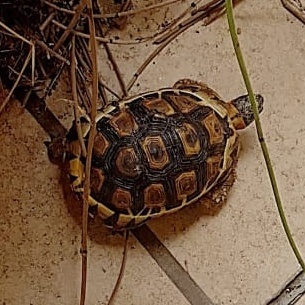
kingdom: Animalia
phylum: Chordata
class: Testudines
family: Testudinidae
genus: Chersina
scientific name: Chersina angulata
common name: South african bowsprit tortoise
